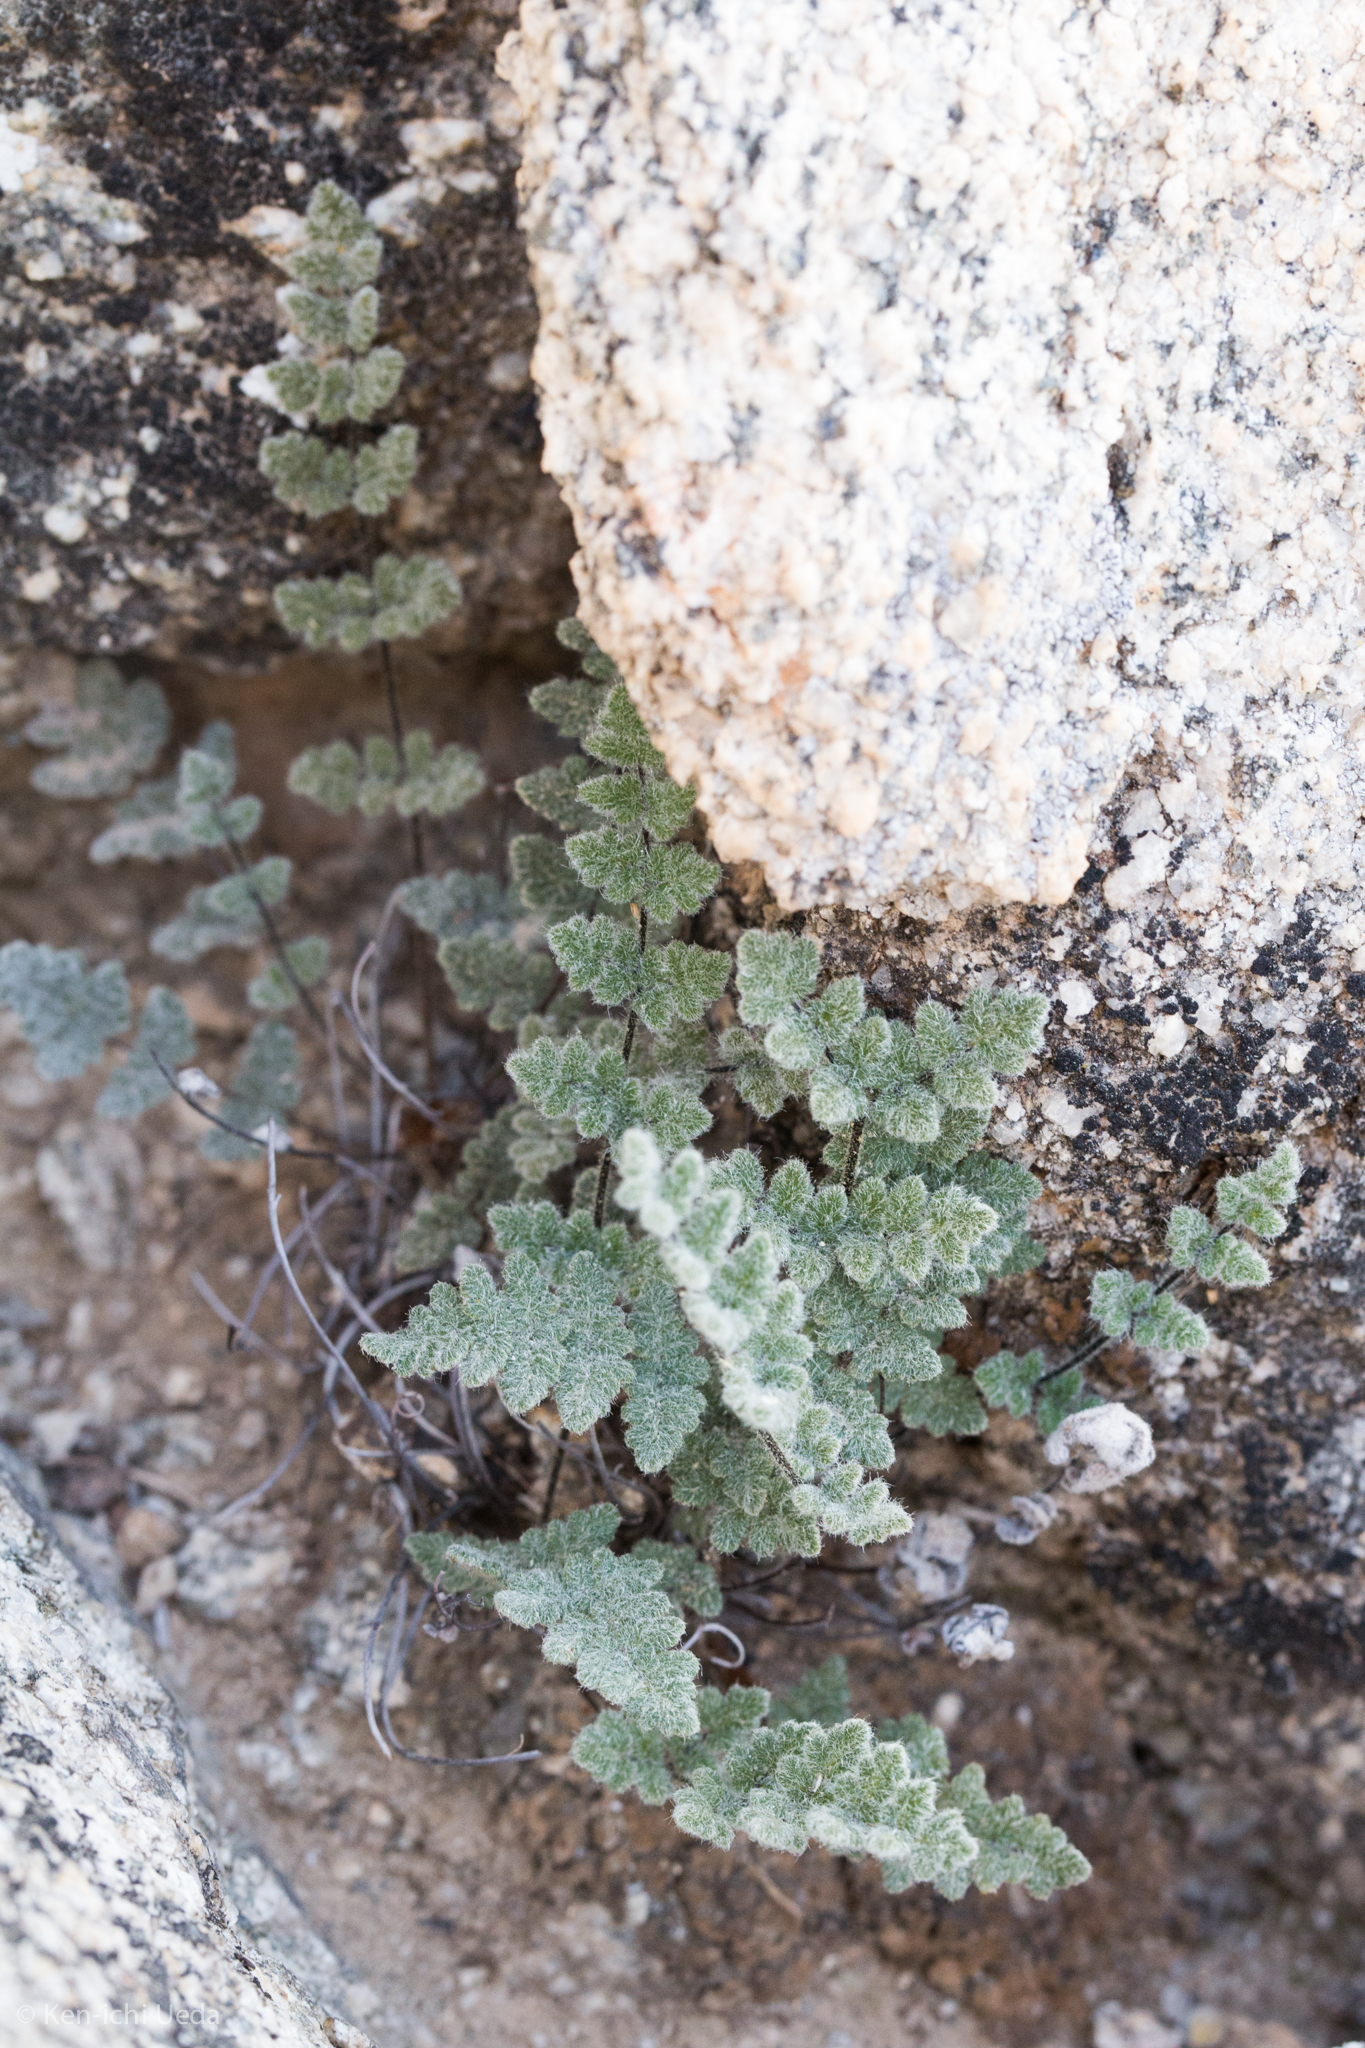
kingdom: Plantae
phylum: Tracheophyta
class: Polypodiopsida
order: Polypodiales
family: Pteridaceae
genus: Myriopteris
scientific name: Myriopteris parryi
